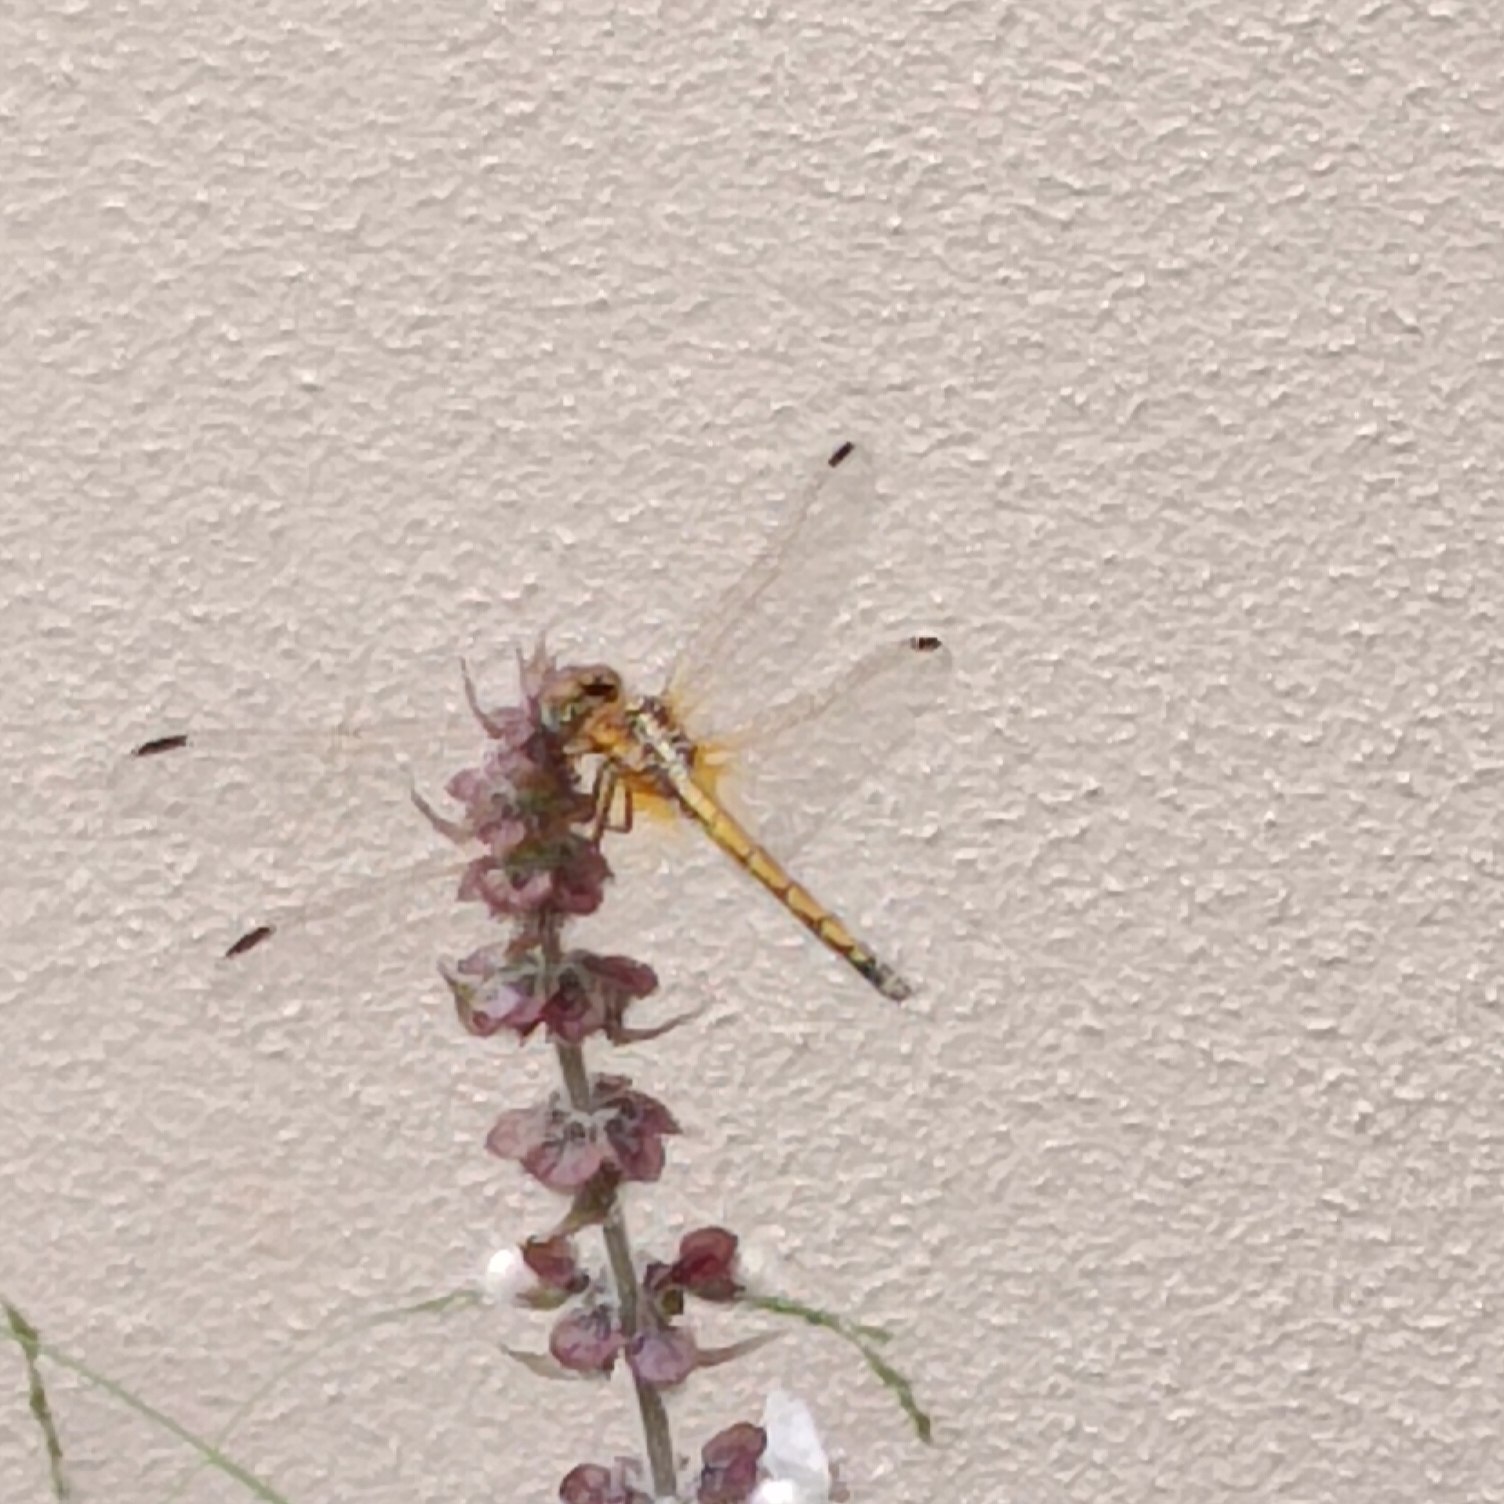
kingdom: Animalia
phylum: Arthropoda
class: Insecta
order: Odonata
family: Libellulidae
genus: Trithemis
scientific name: Trithemis arteriosa
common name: Red-veined dropwing
